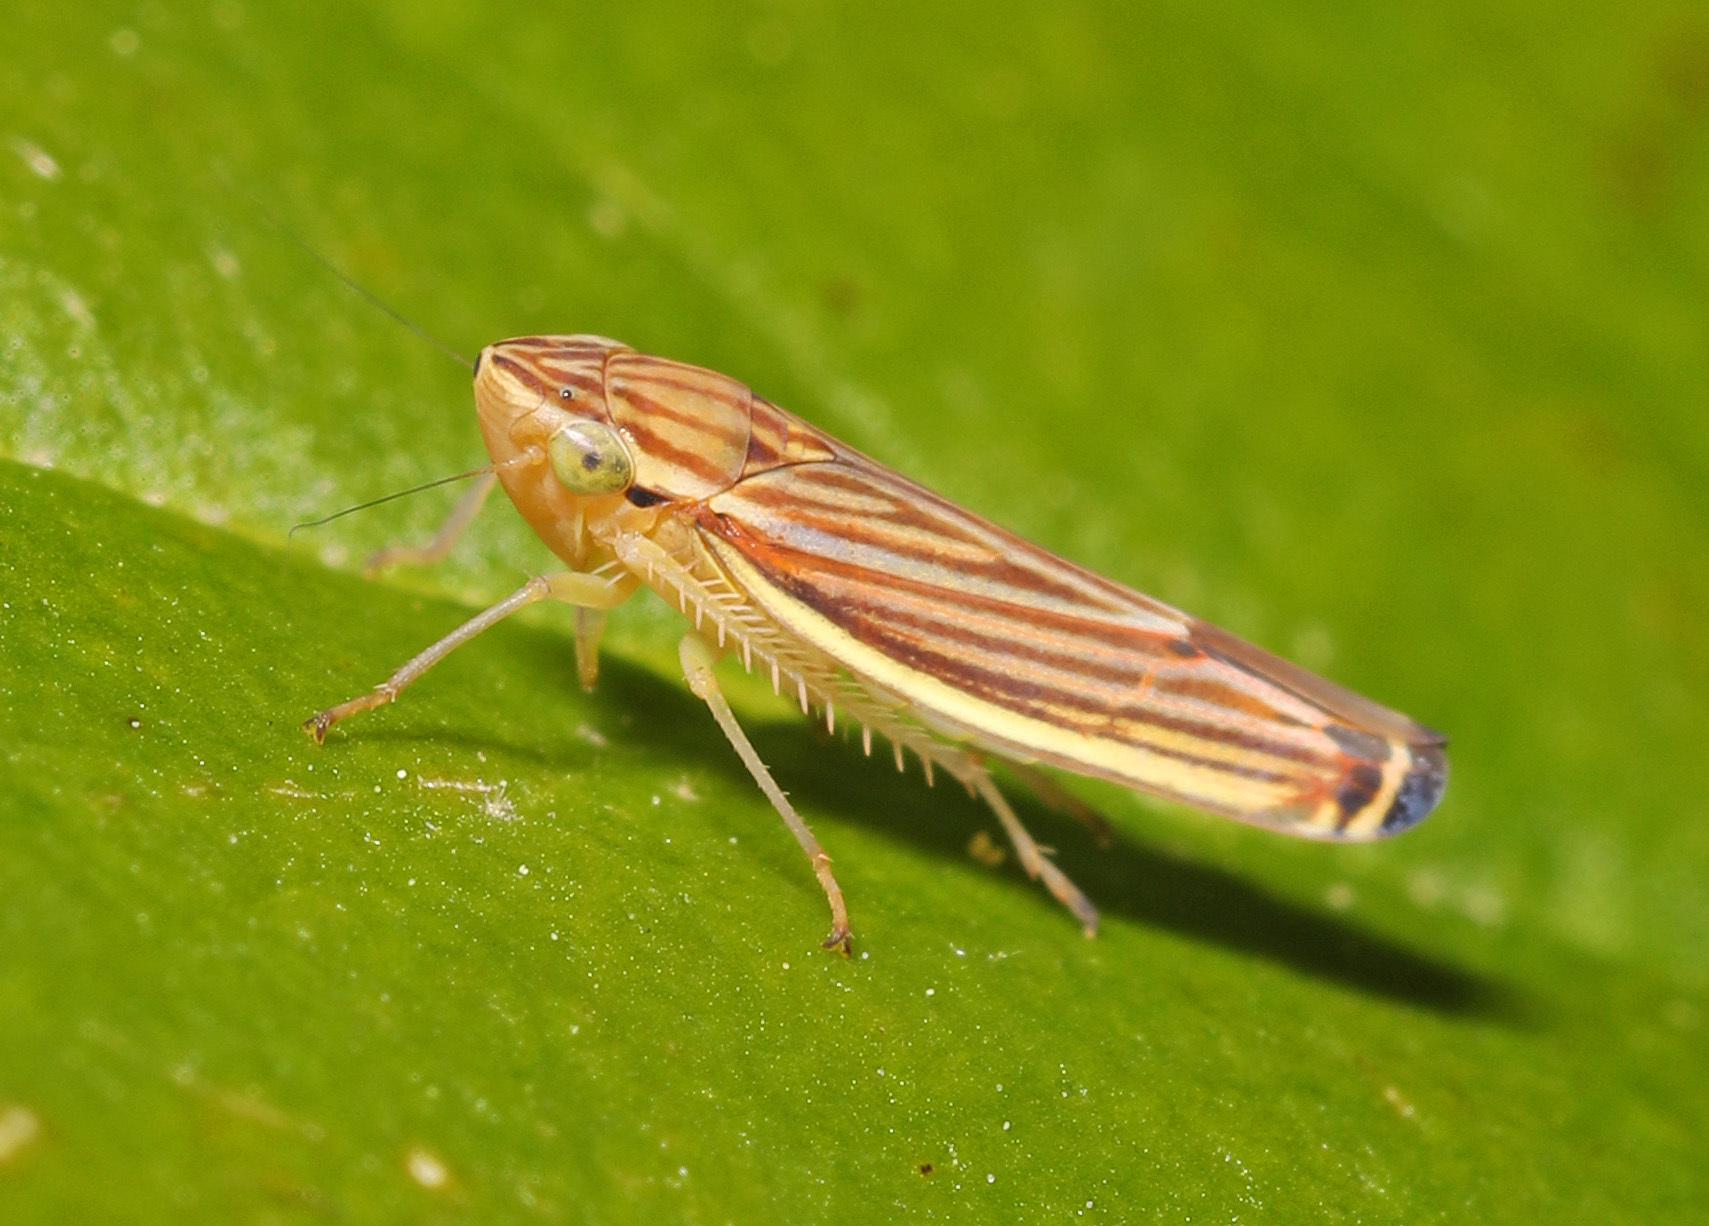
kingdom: Animalia
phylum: Arthropoda
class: Insecta
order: Hemiptera
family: Cicadellidae
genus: Sibovia
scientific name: Sibovia occatoria
